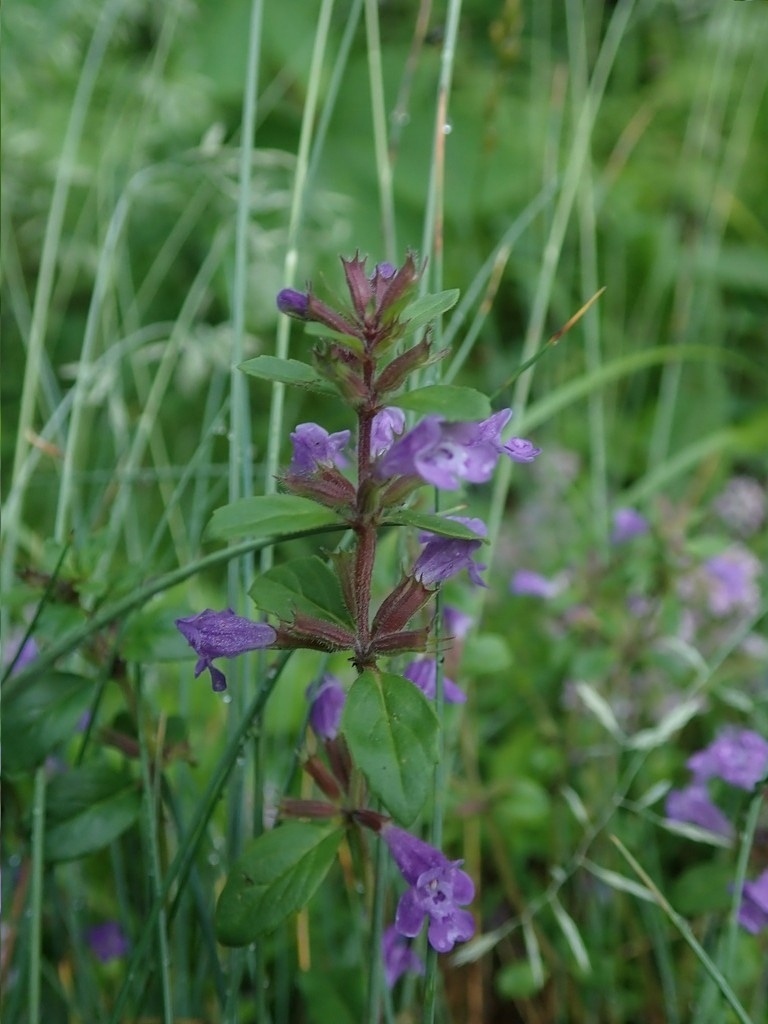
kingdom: Plantae
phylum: Tracheophyta
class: Magnoliopsida
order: Lamiales
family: Lamiaceae
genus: Clinopodium
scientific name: Clinopodium acinos
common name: Basil thyme
